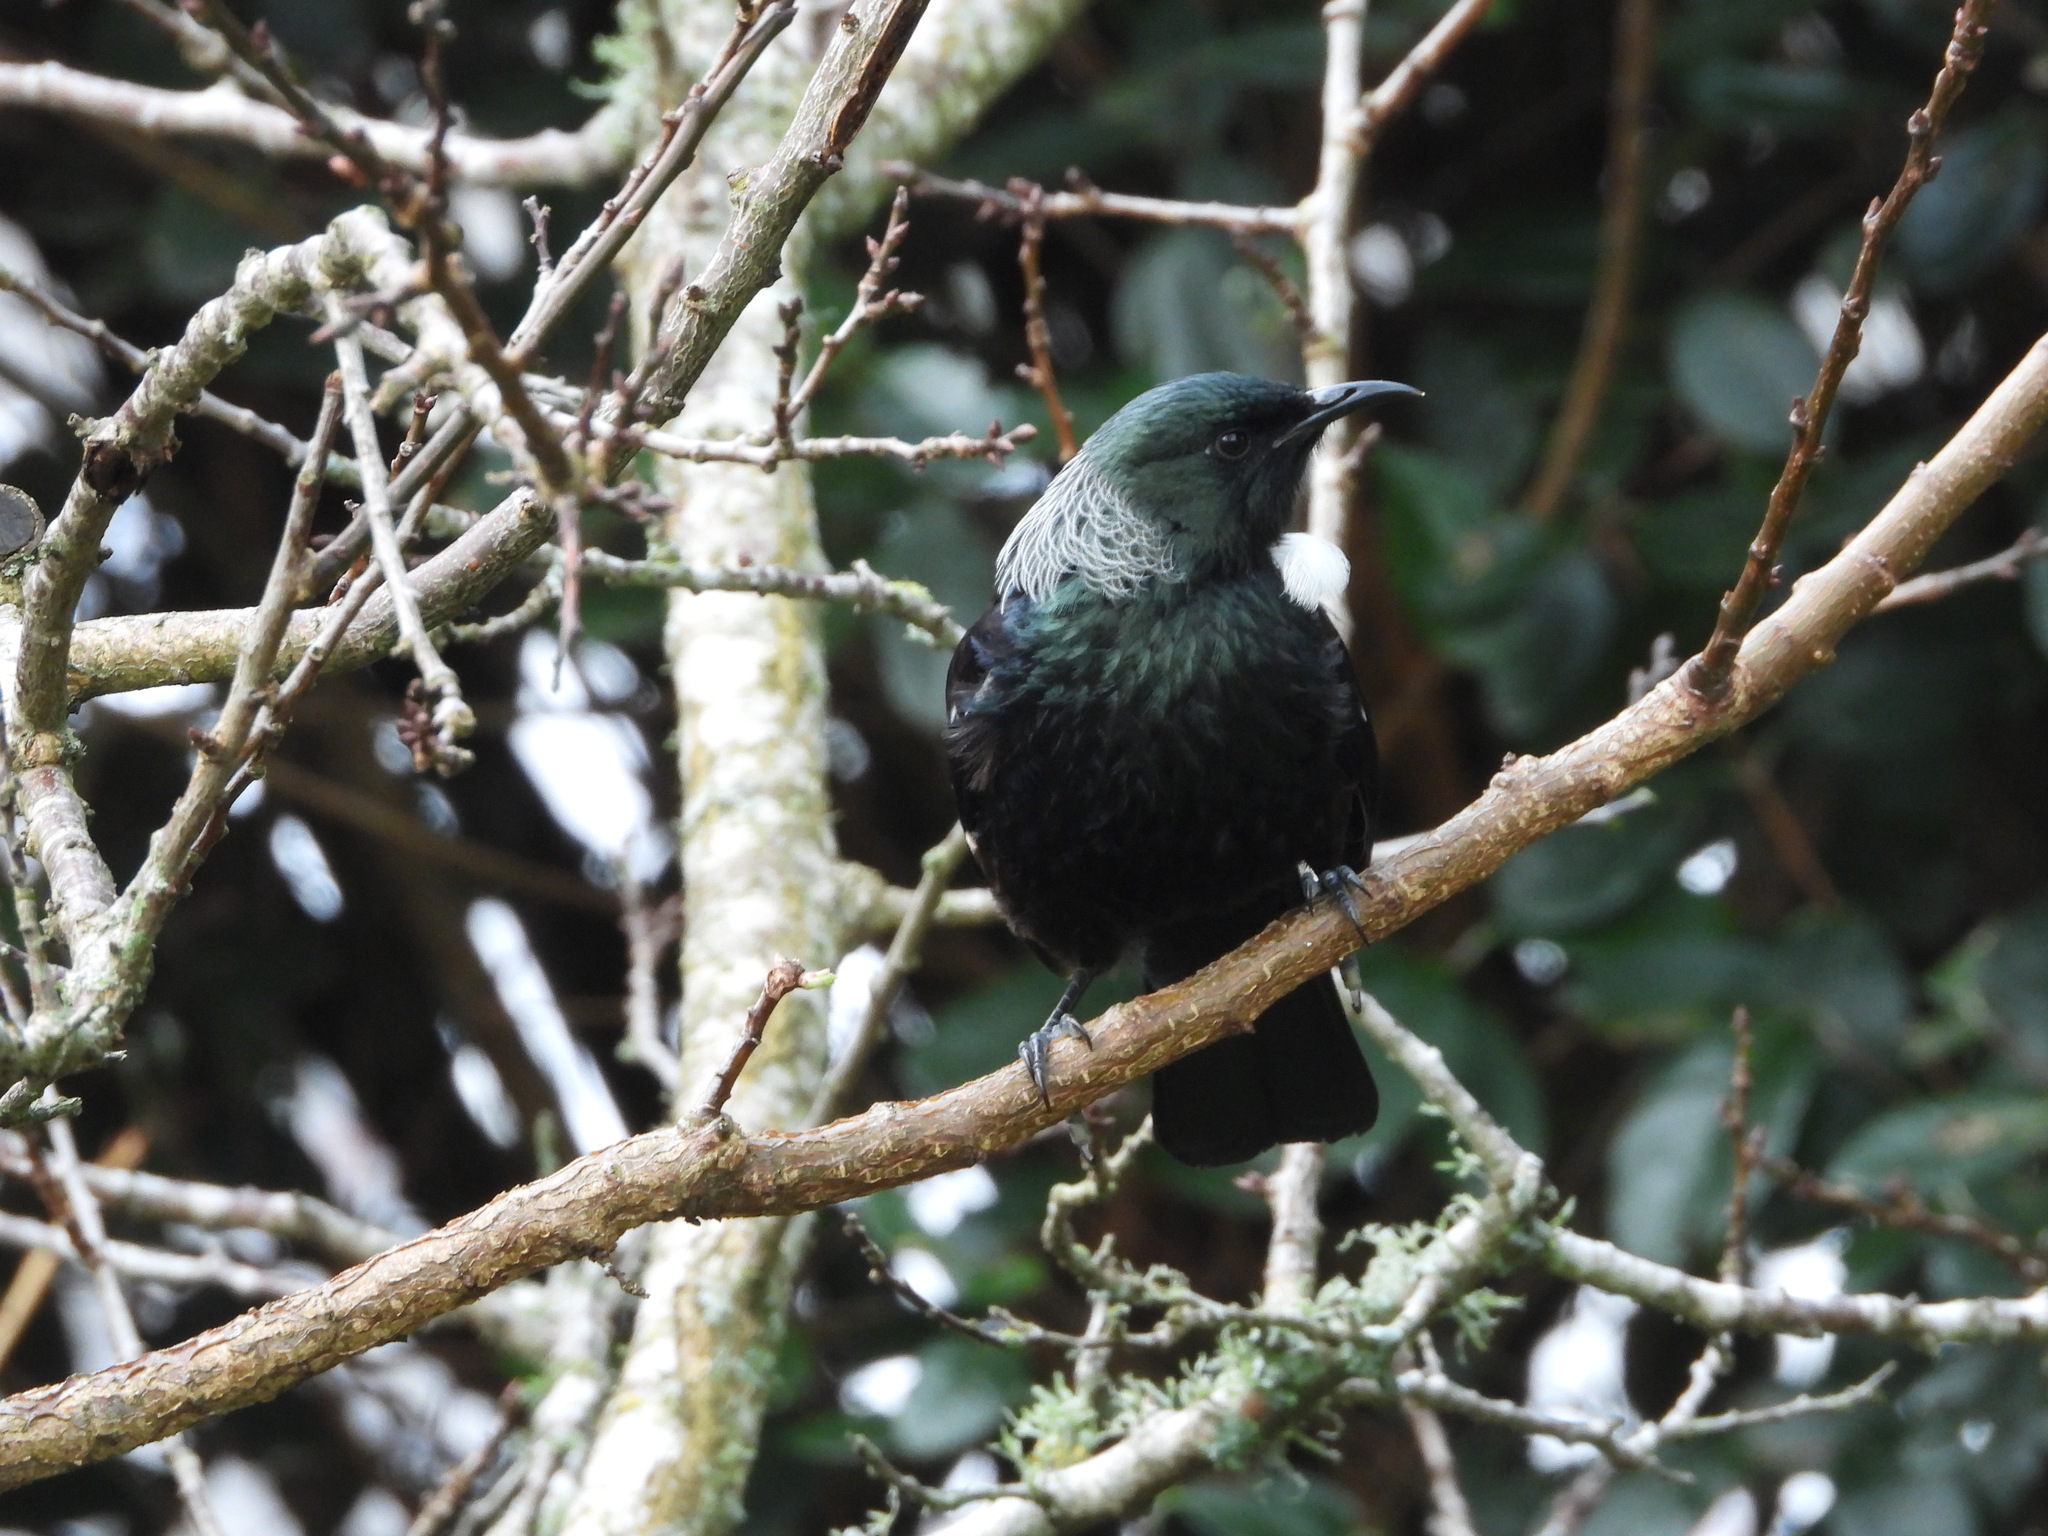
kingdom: Animalia
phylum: Chordata
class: Aves
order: Passeriformes
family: Meliphagidae
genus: Prosthemadera
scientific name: Prosthemadera novaeseelandiae
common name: Tui
